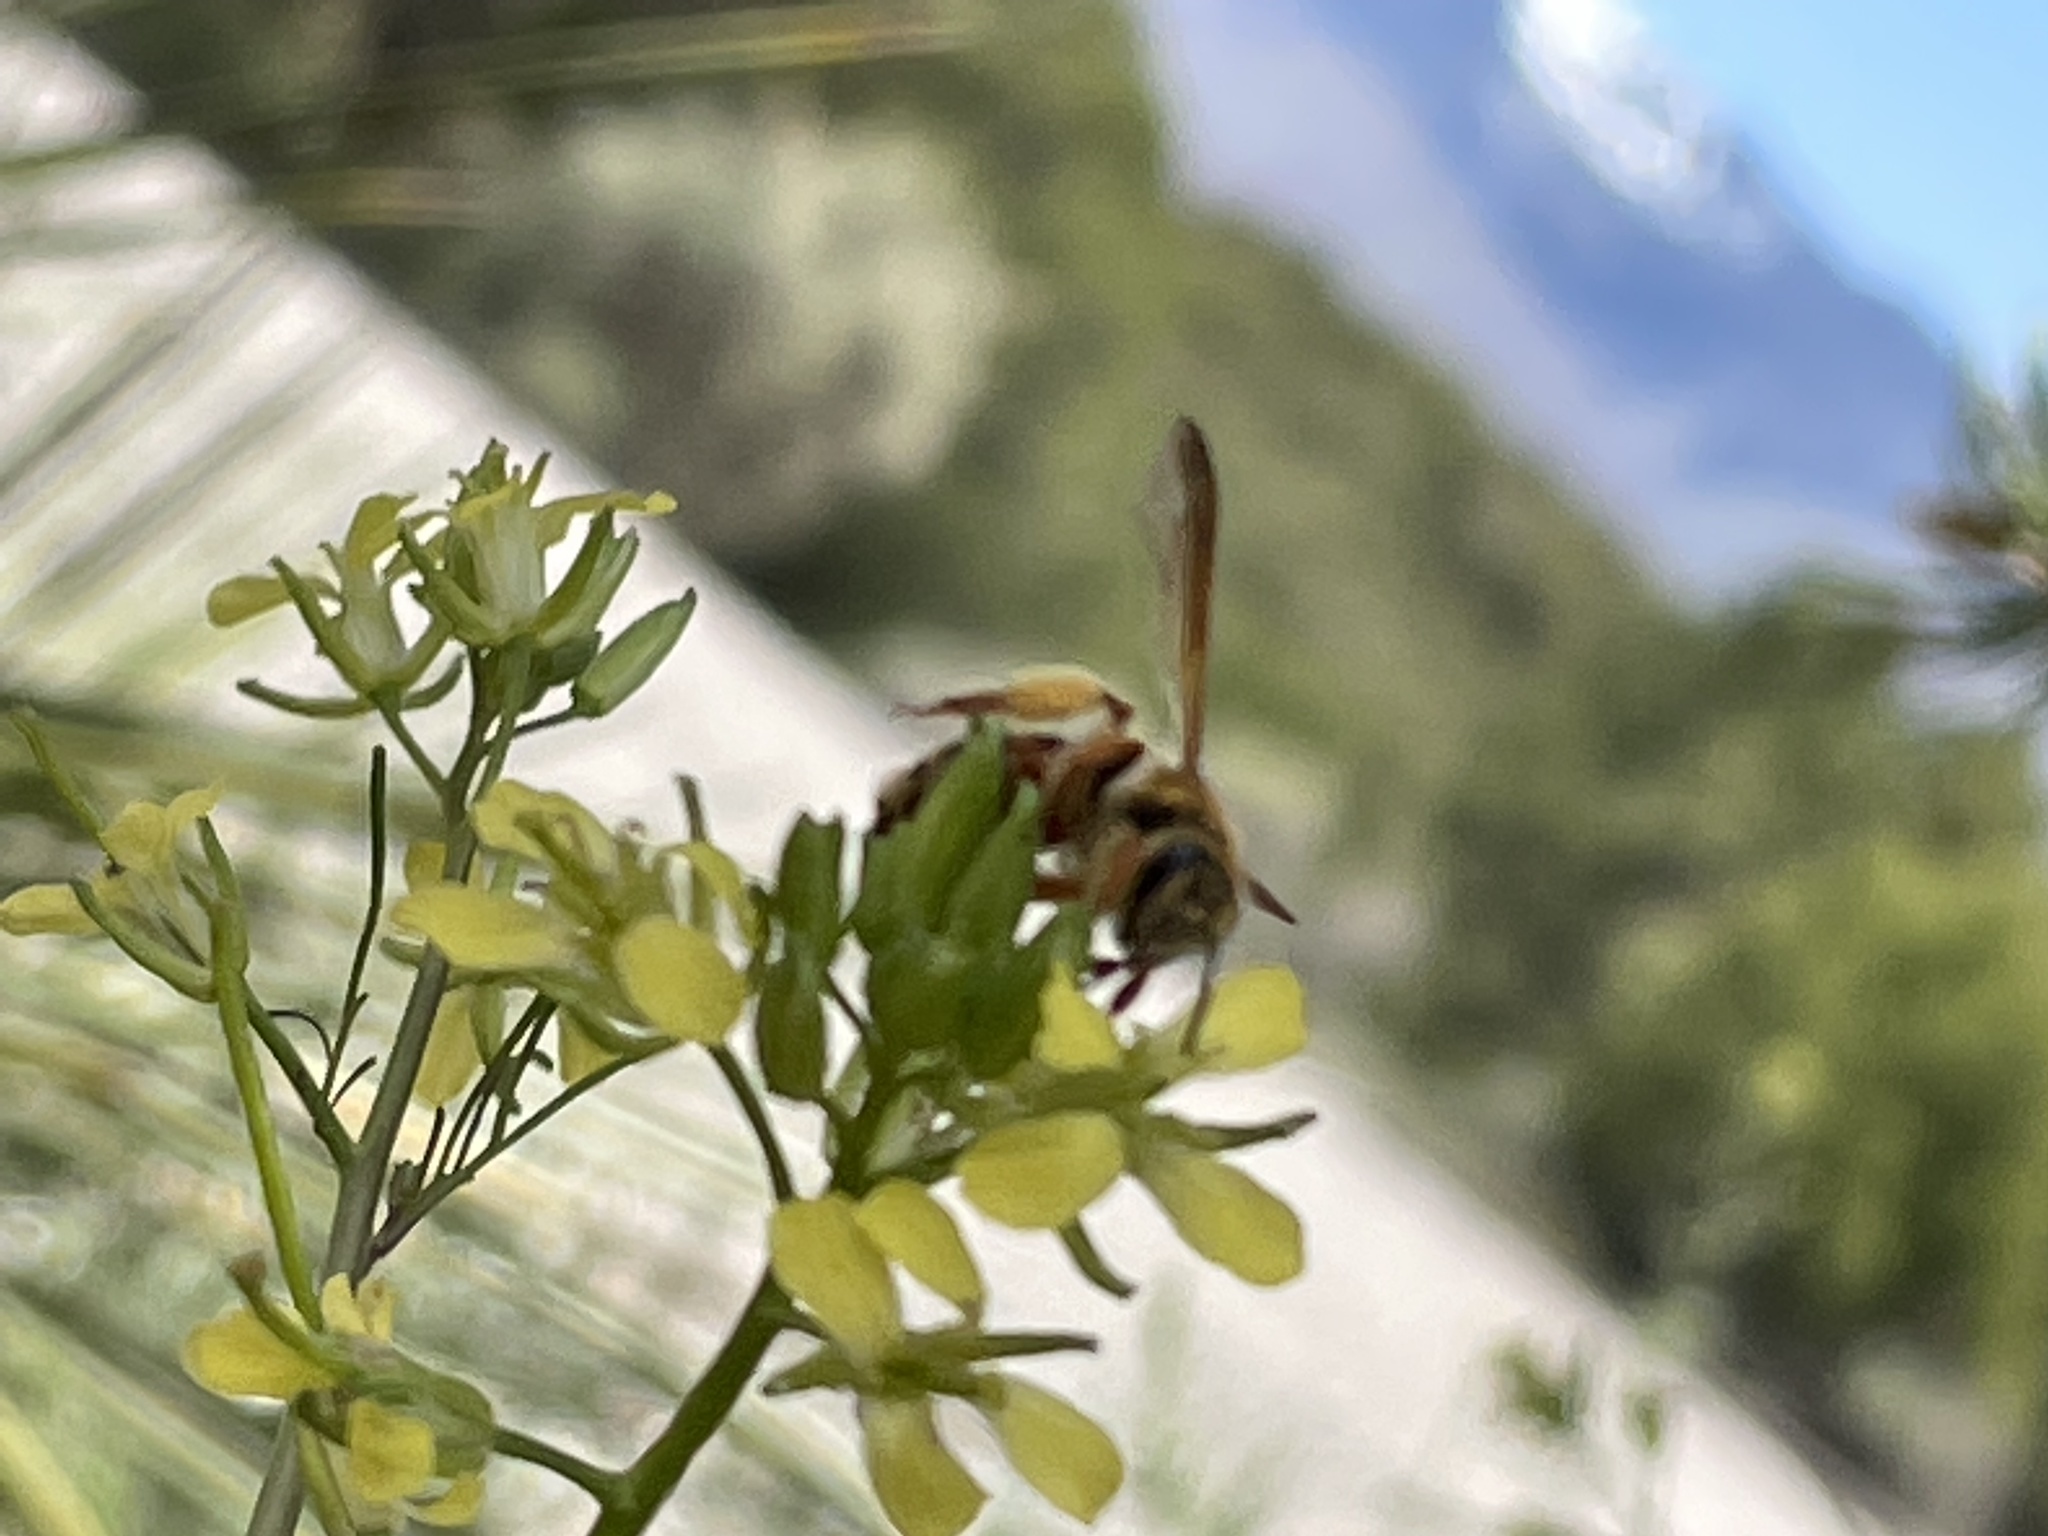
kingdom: Animalia
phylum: Arthropoda
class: Insecta
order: Hymenoptera
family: Andrenidae
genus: Andrena
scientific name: Andrena prunorum
